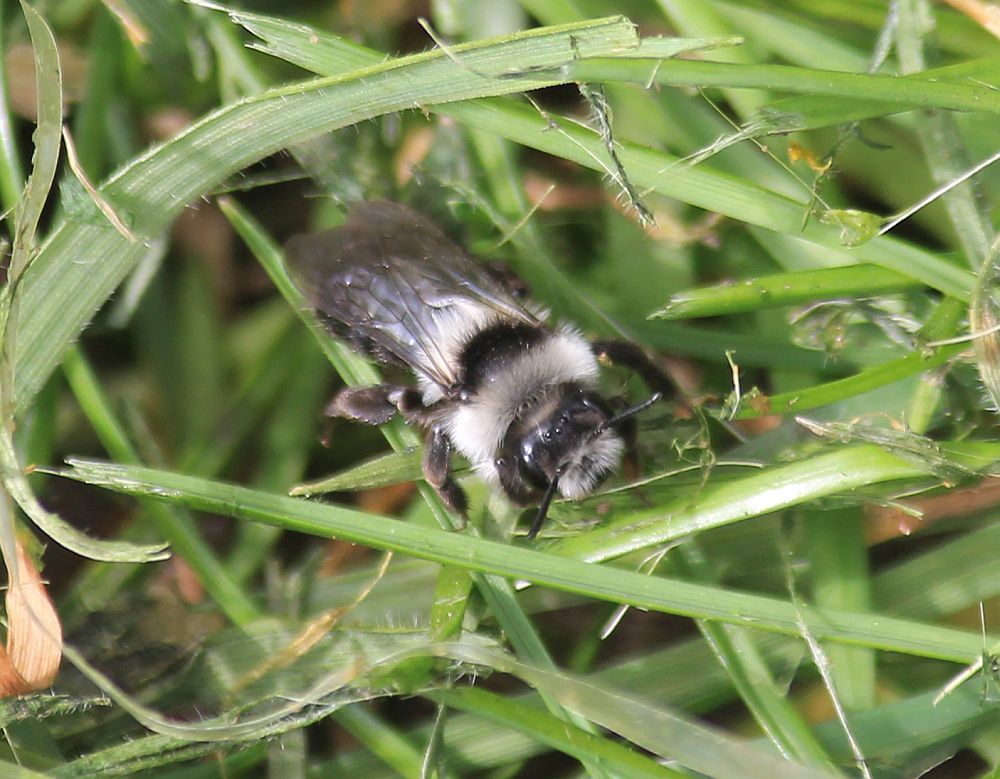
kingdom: Animalia
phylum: Arthropoda
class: Insecta
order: Hymenoptera
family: Andrenidae
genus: Andrena
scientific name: Andrena cineraria
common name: Ashy mining bee
